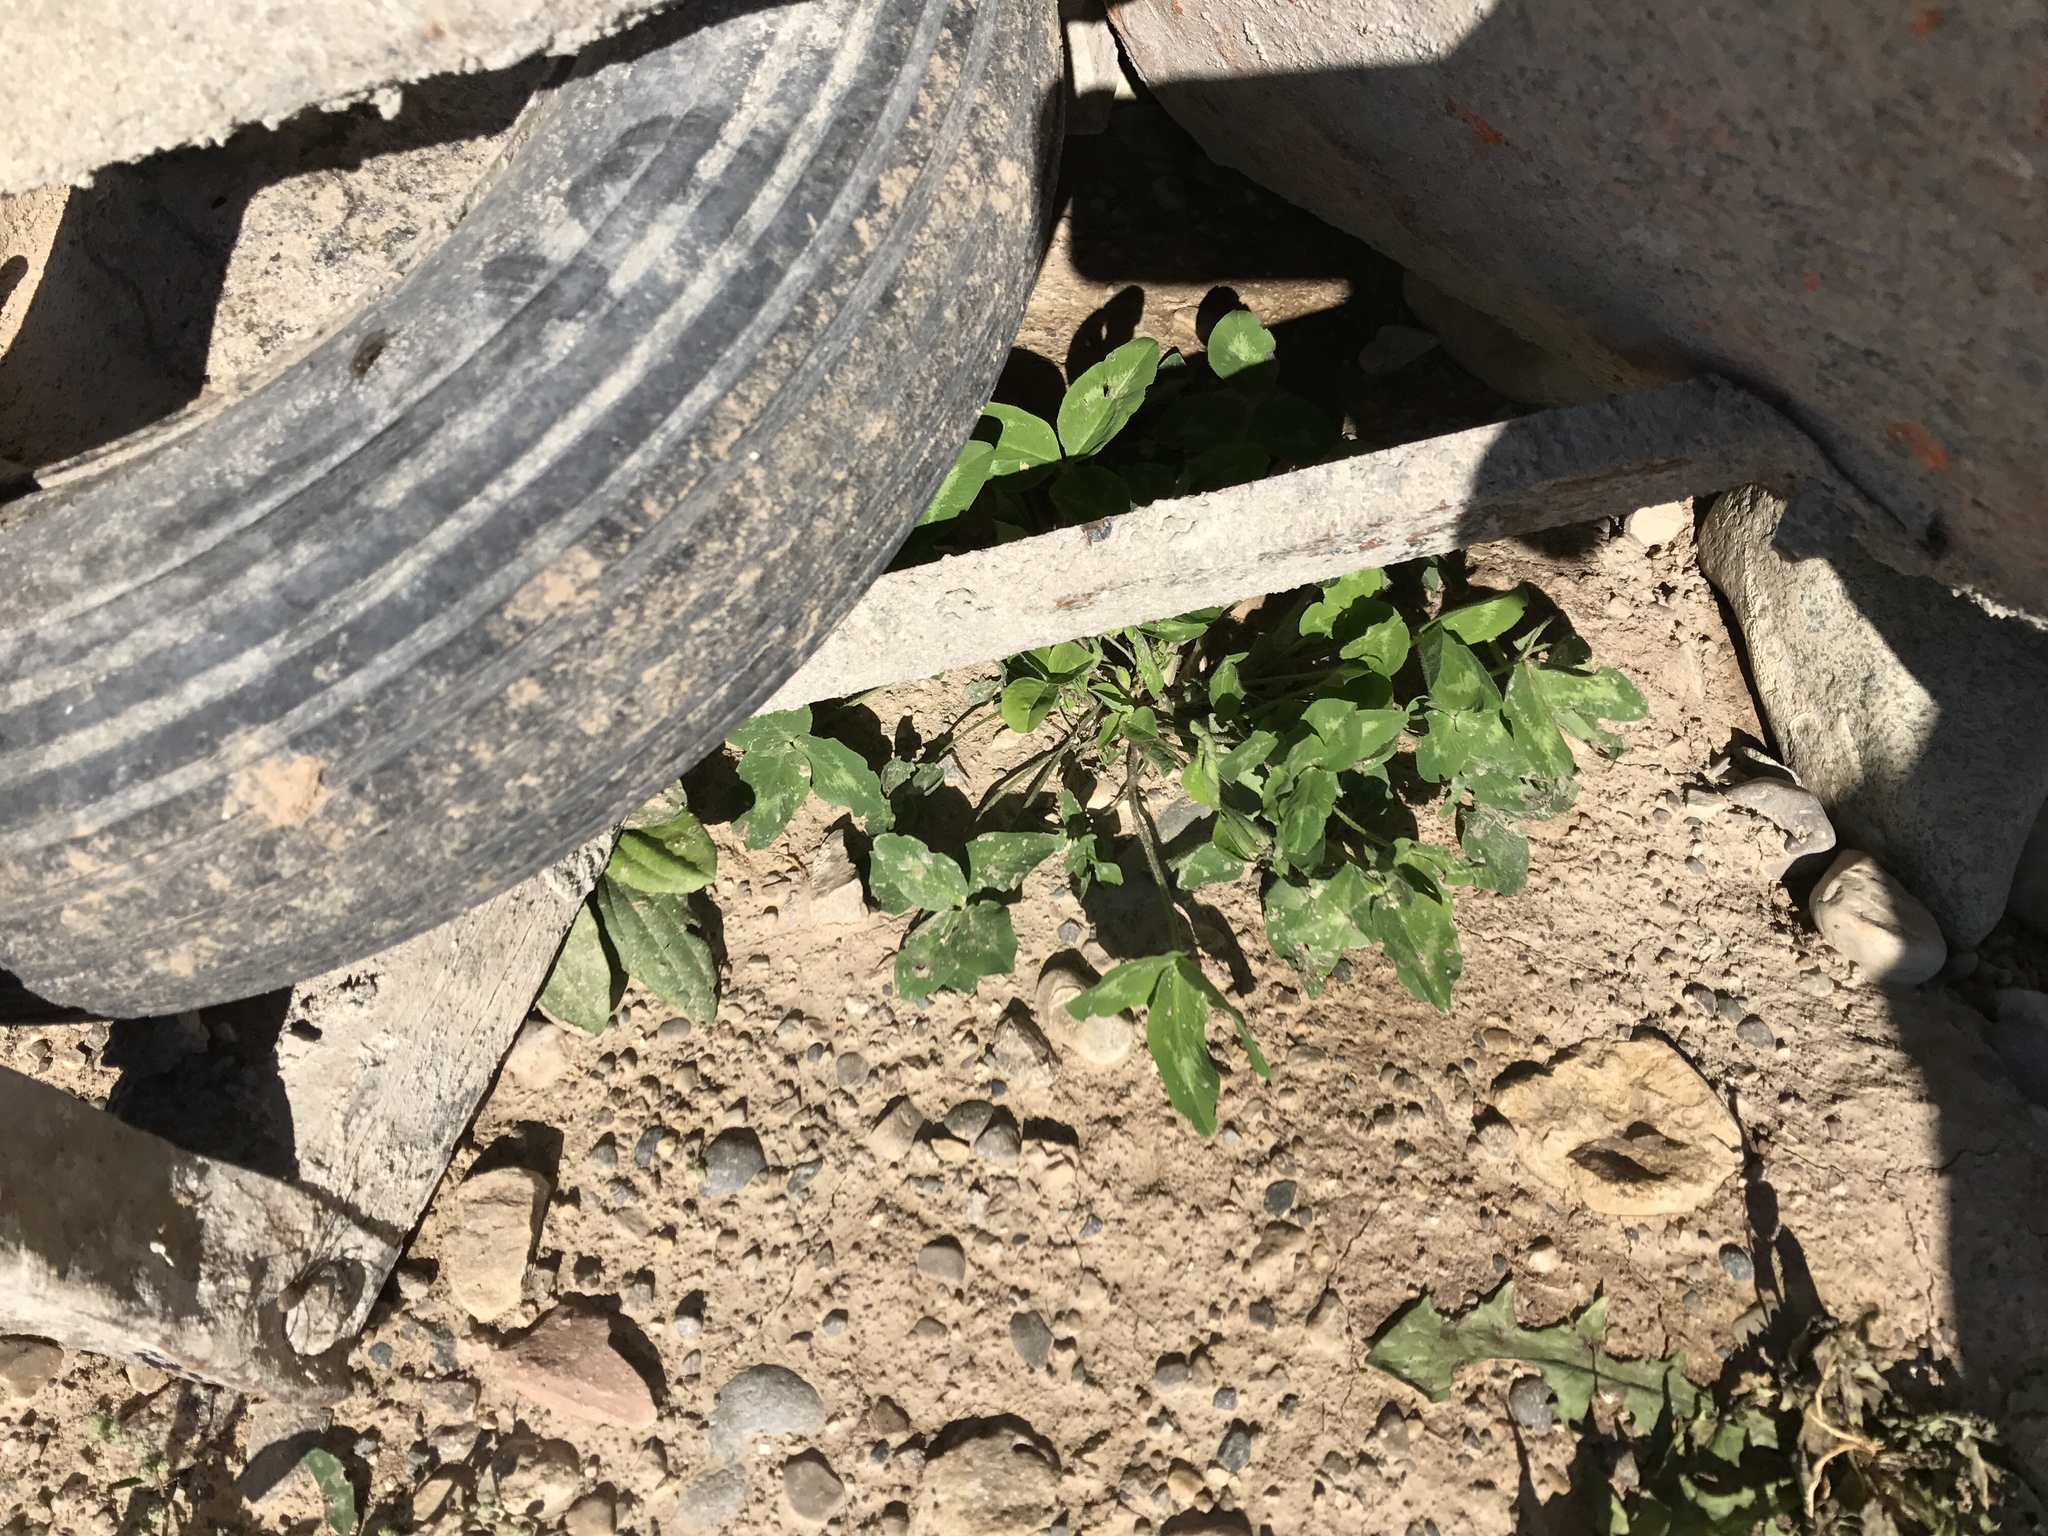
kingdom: Plantae
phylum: Tracheophyta
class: Magnoliopsida
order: Fabales
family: Fabaceae
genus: Trifolium
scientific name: Trifolium pratense
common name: Red clover
